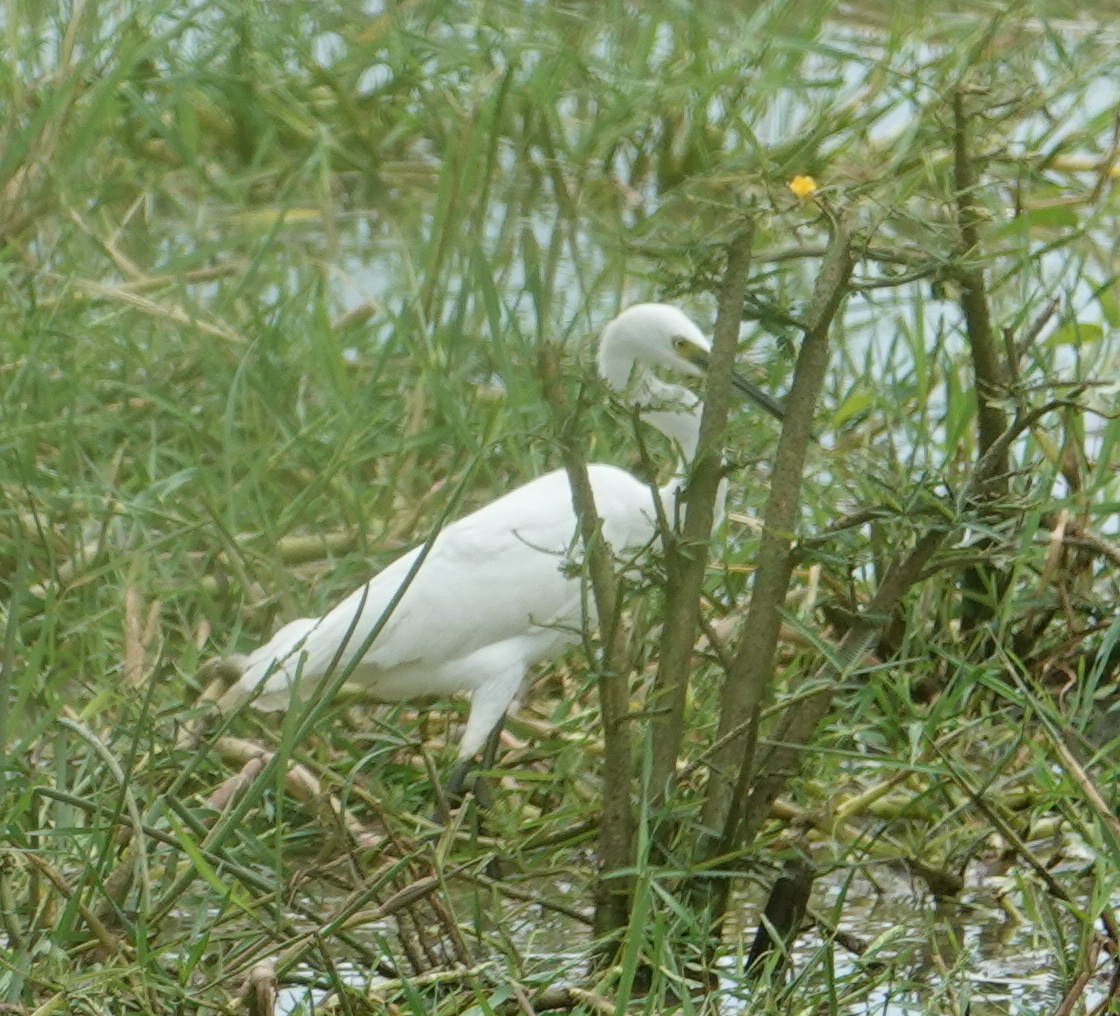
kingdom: Animalia
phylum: Chordata
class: Aves
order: Pelecaniformes
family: Ardeidae
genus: Egretta
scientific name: Egretta garzetta
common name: Little egret
